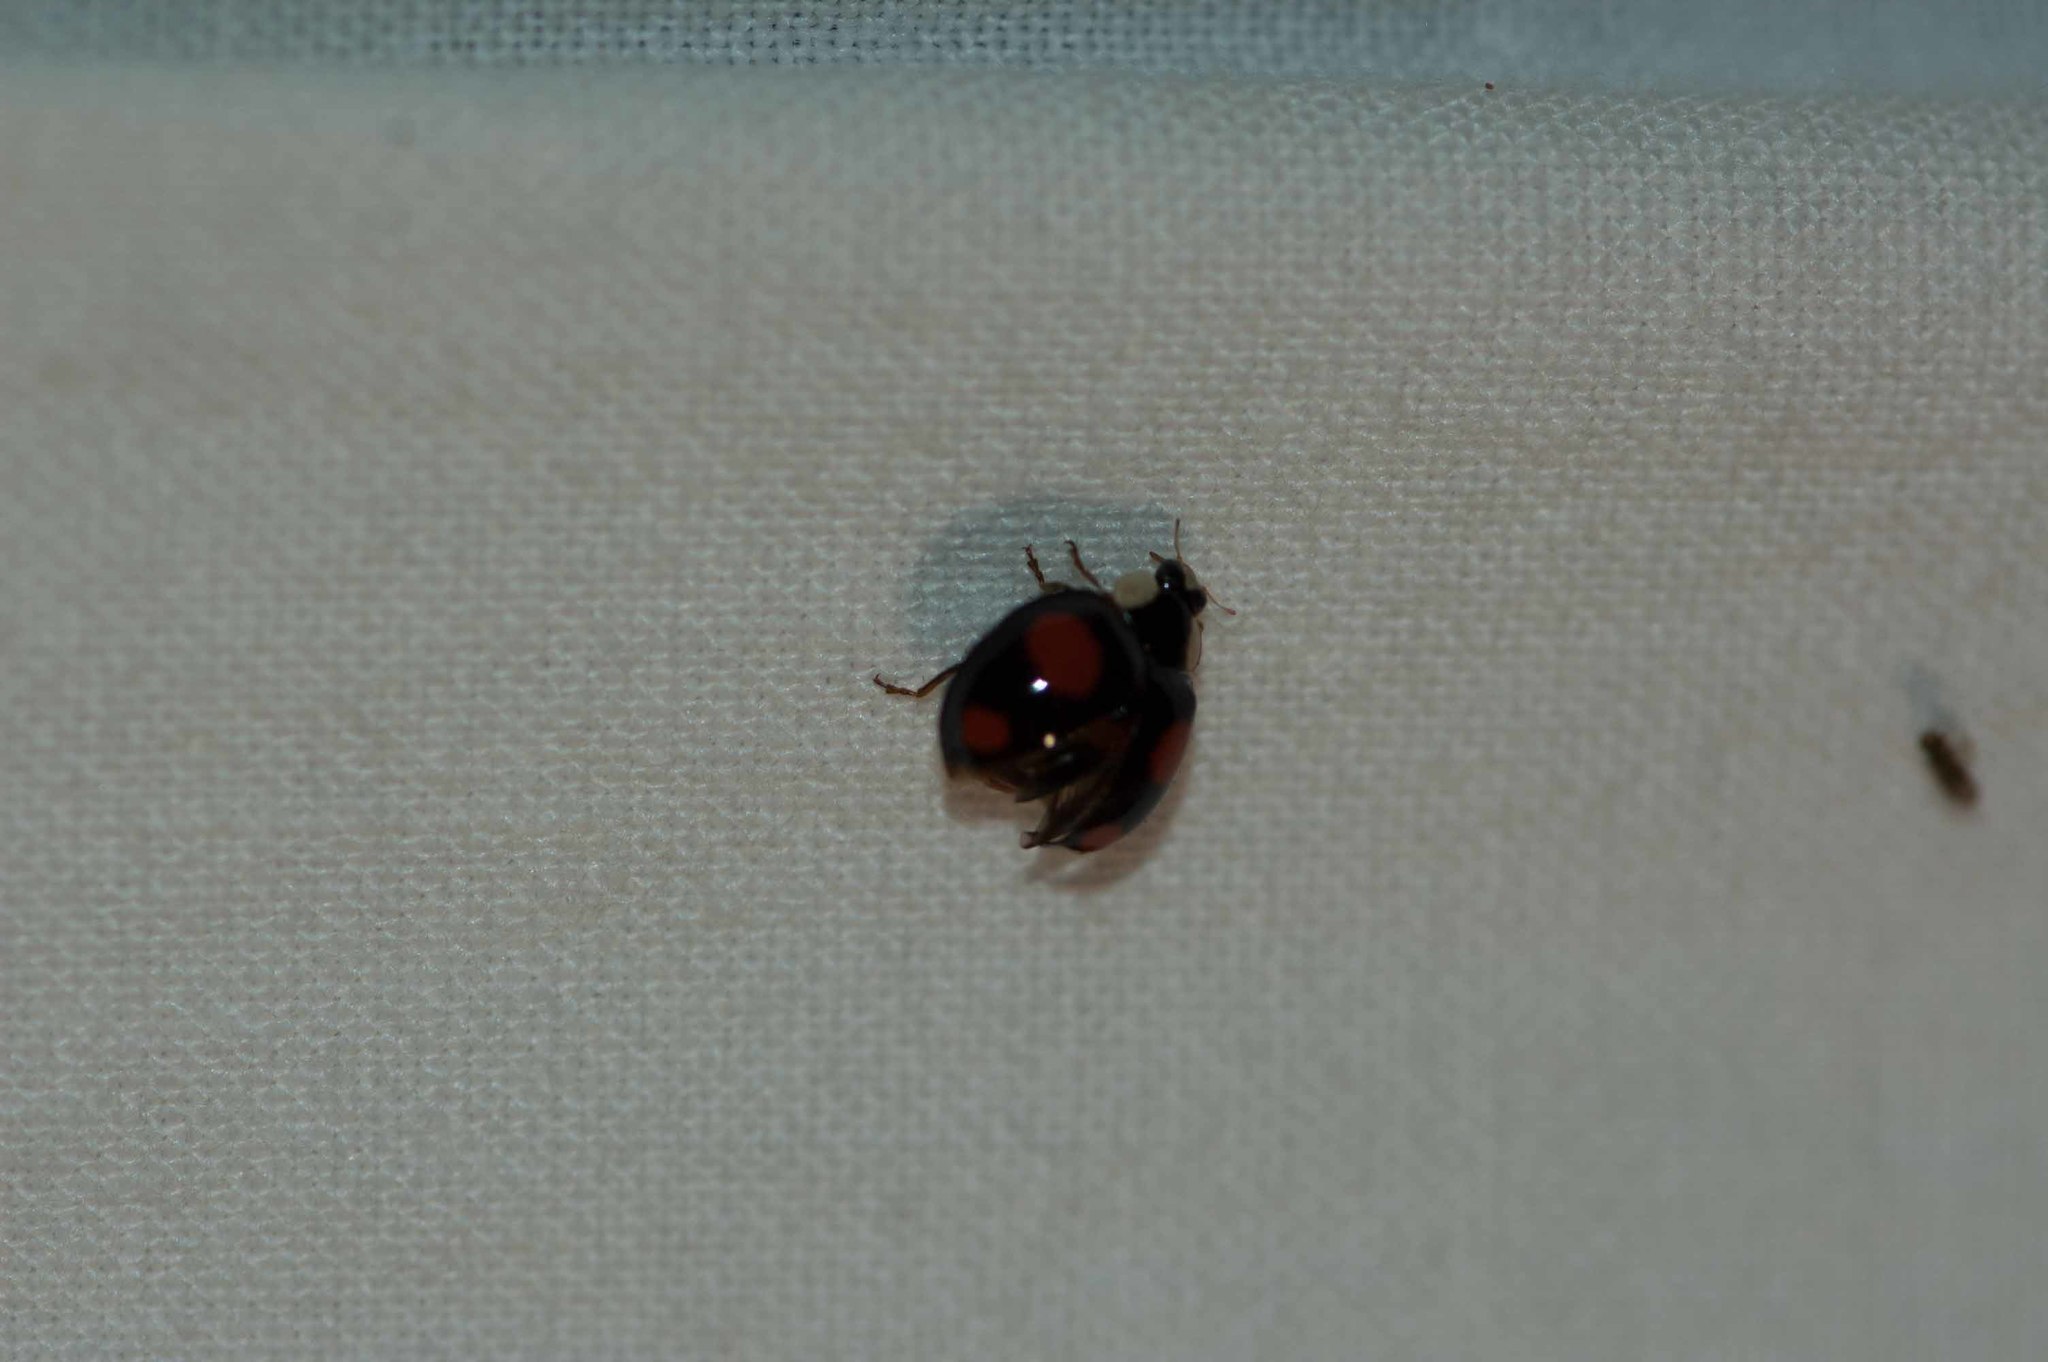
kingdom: Animalia
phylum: Arthropoda
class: Insecta
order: Coleoptera
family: Coccinellidae
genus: Harmonia
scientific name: Harmonia axyridis
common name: Harlequin ladybird
